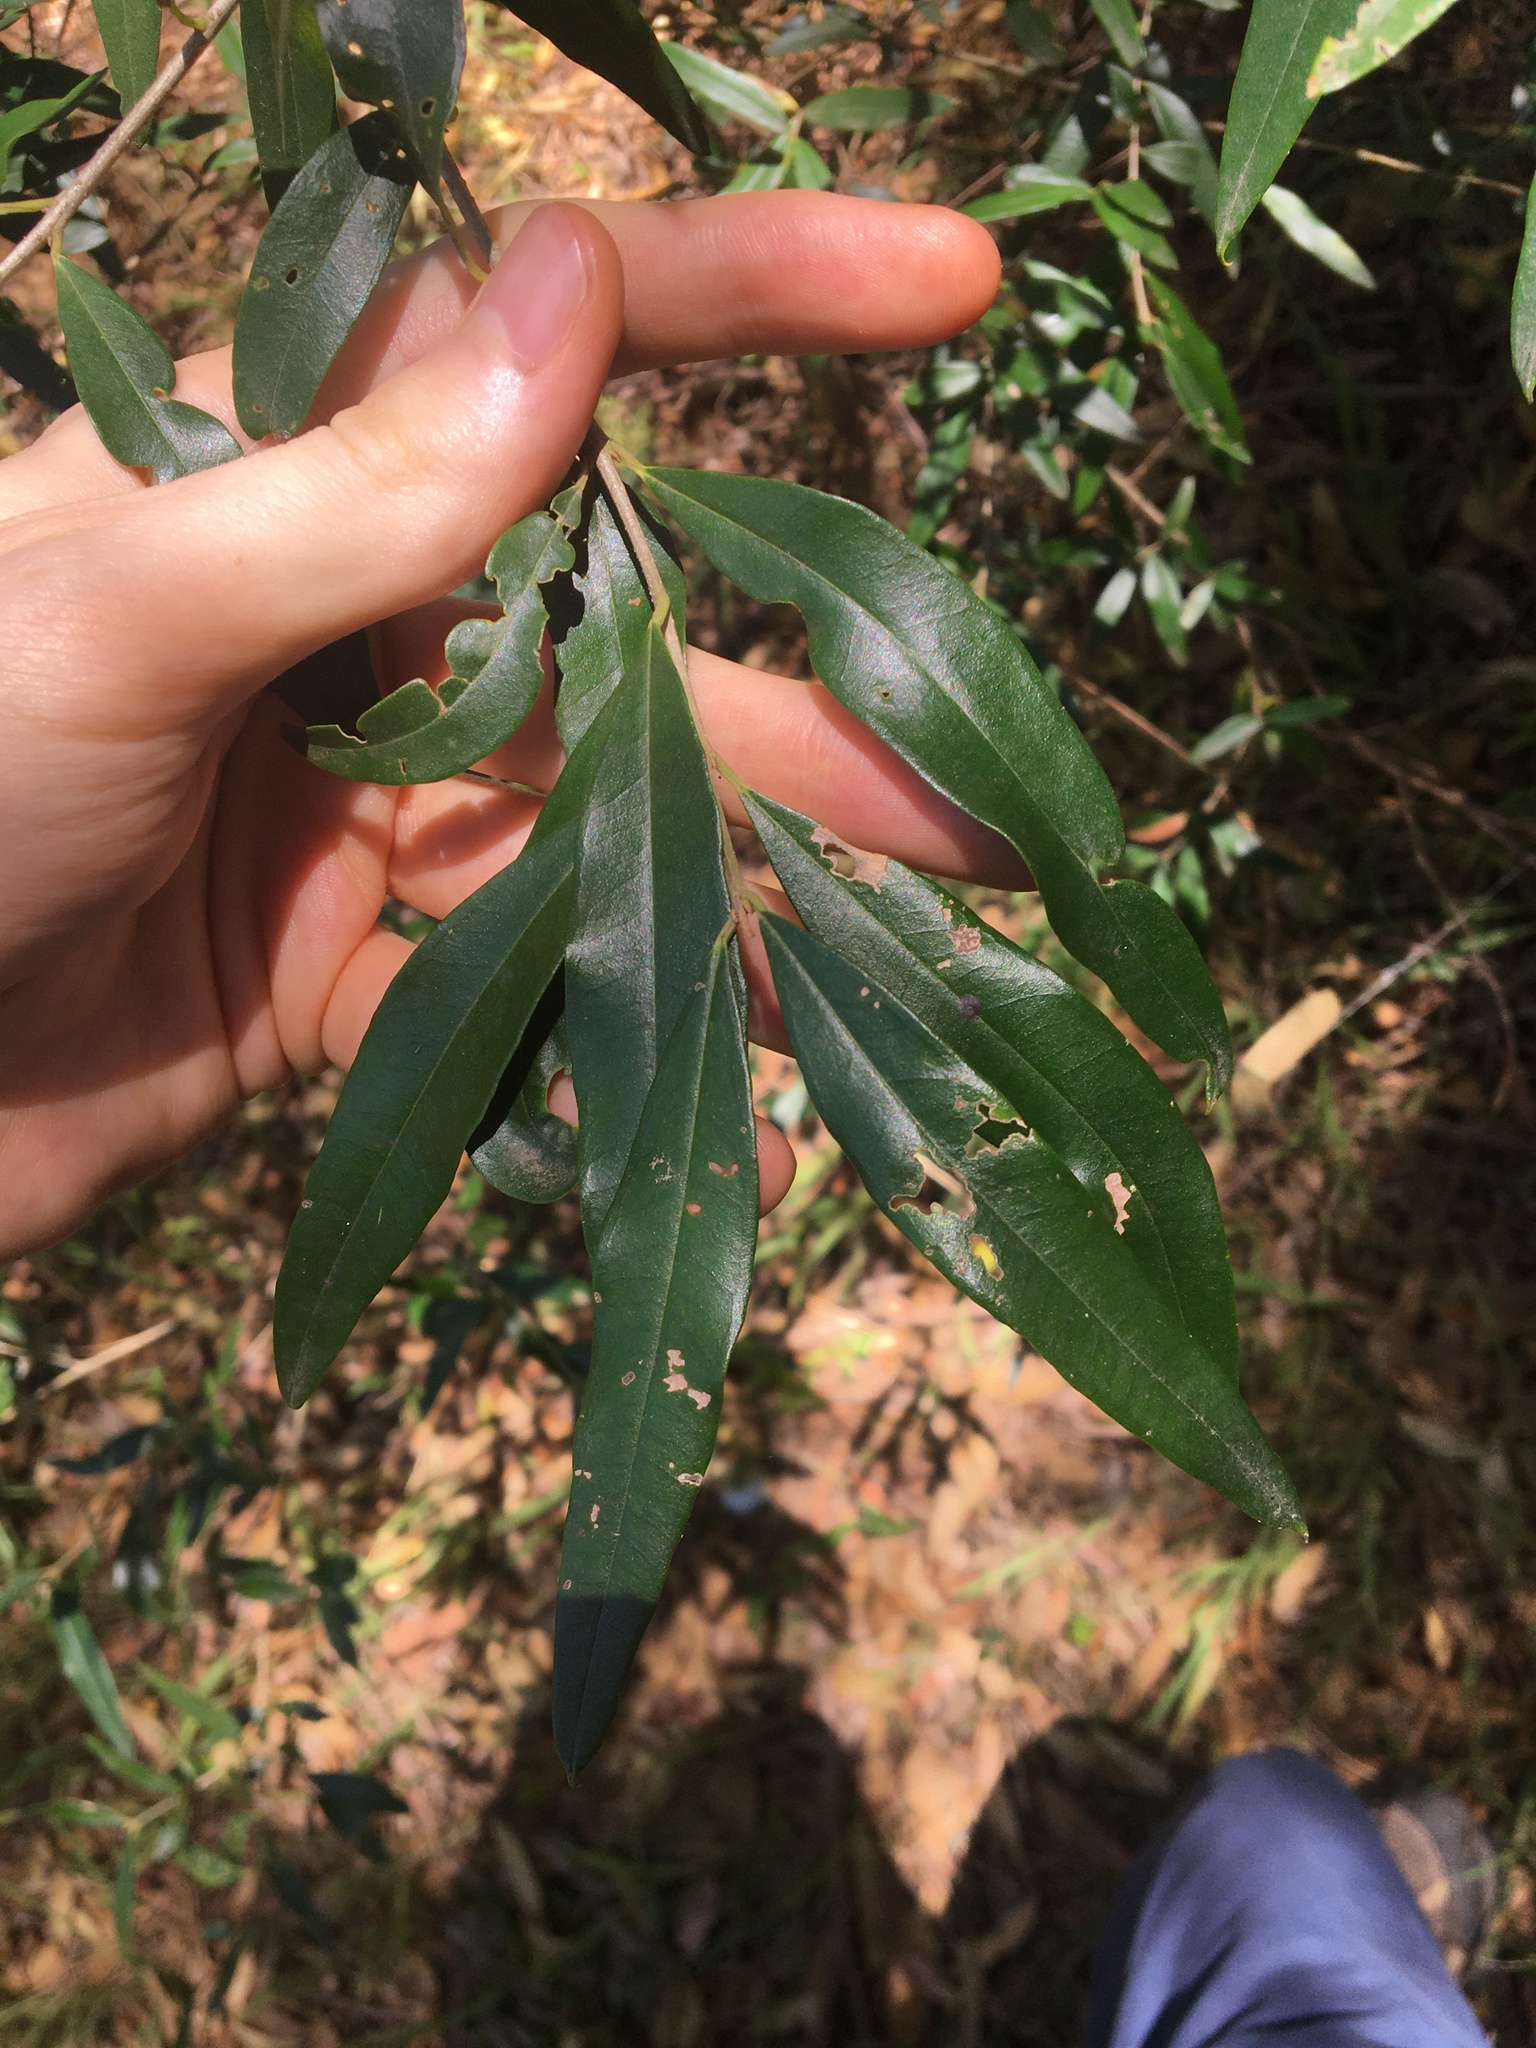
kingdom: Plantae
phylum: Tracheophyta
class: Magnoliopsida
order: Lamiales
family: Oleaceae
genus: Olea
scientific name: Olea europaea
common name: Olive
